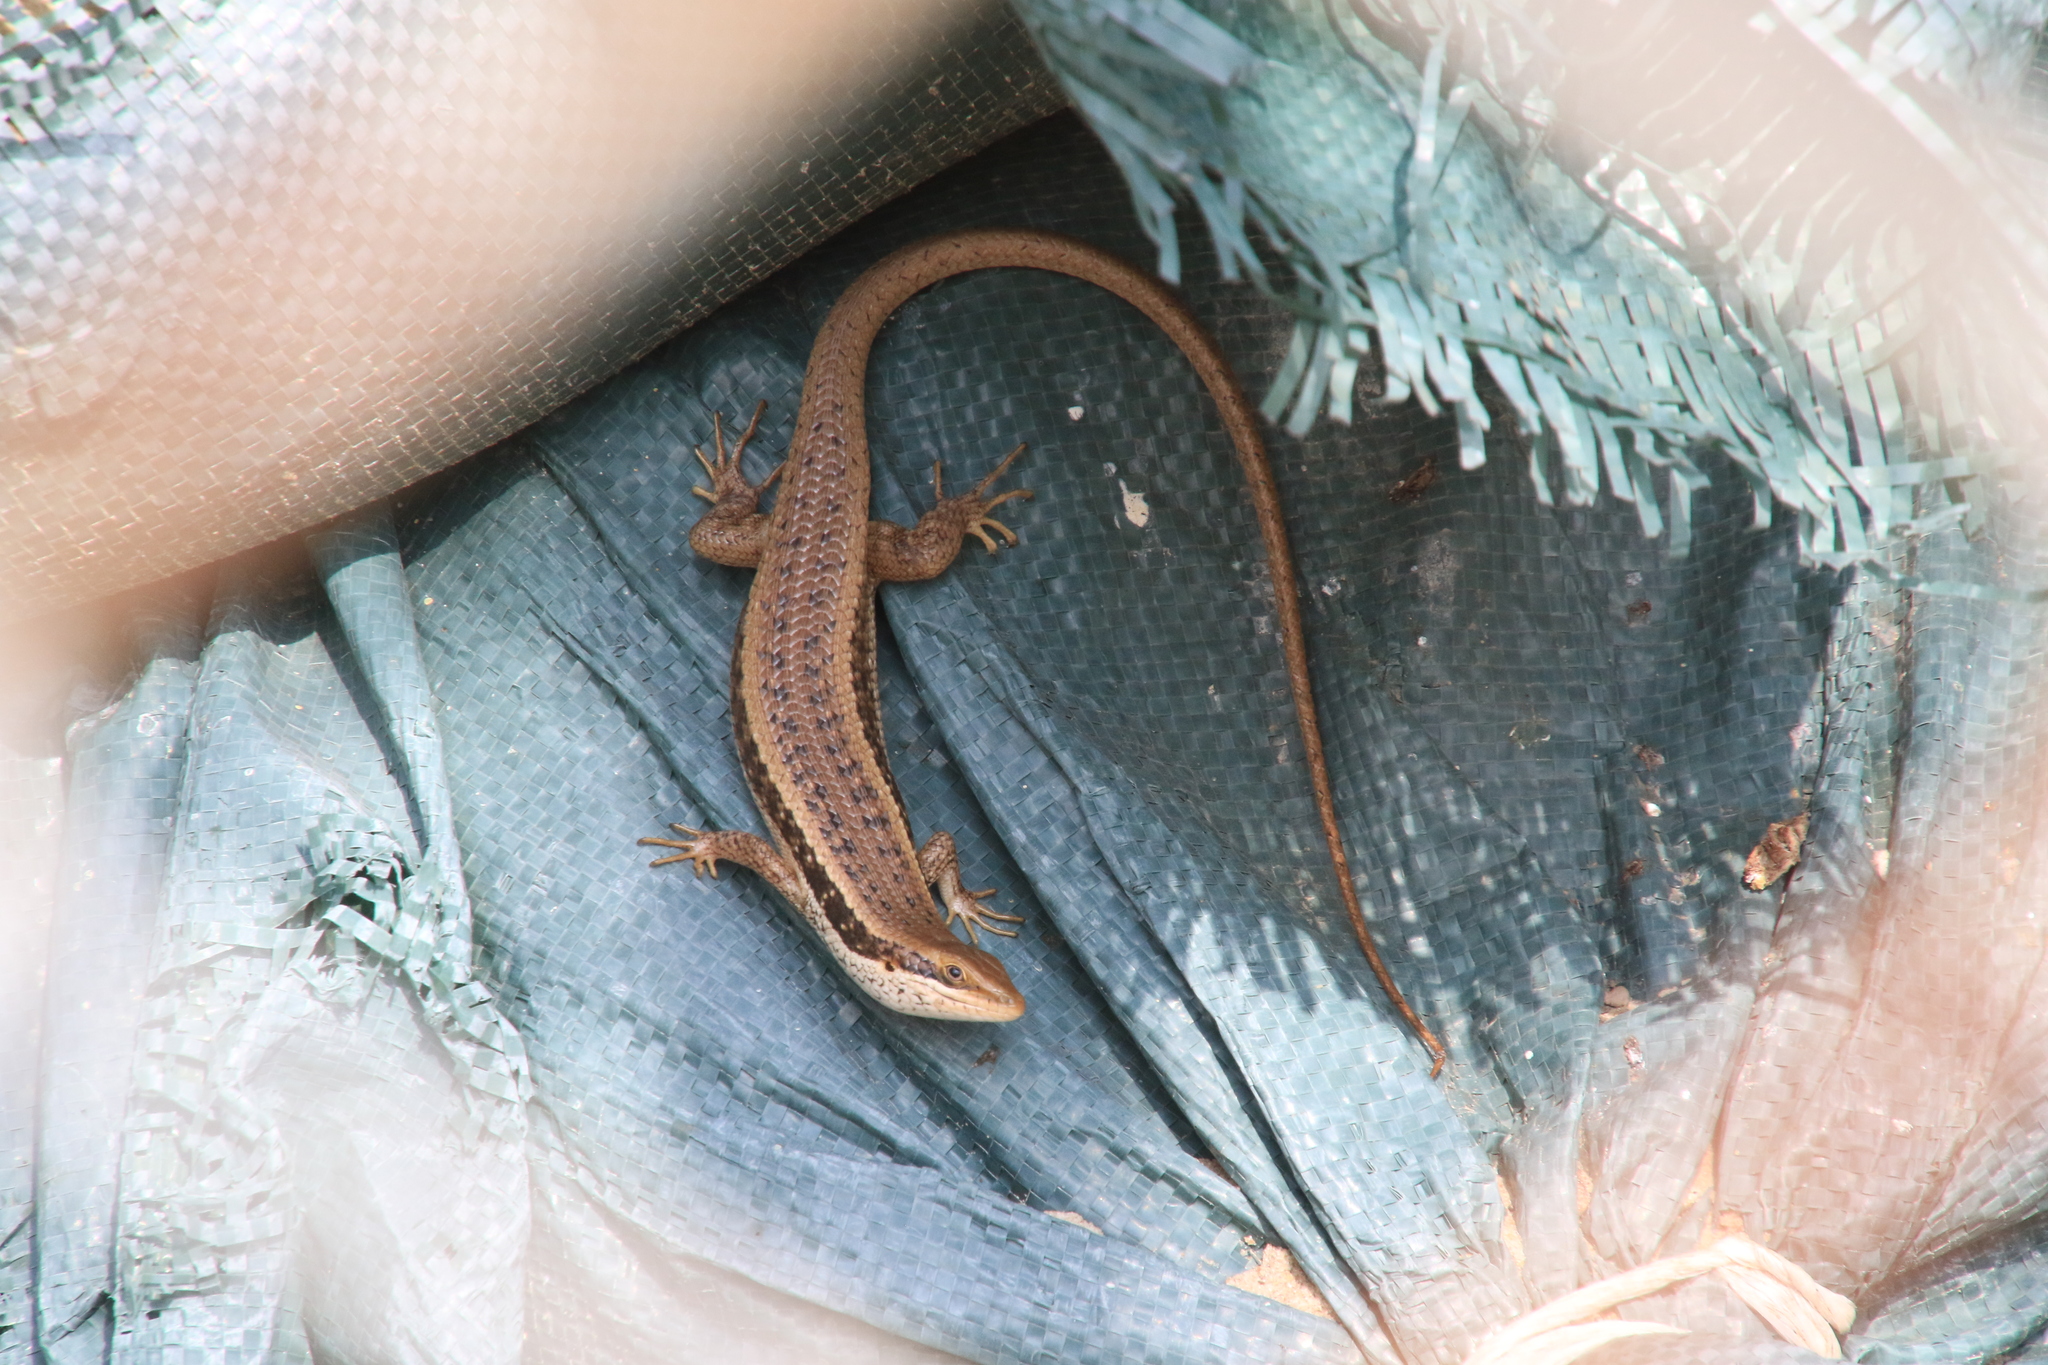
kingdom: Animalia
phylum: Chordata
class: Squamata
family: Scincidae
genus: Trachylepis
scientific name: Trachylepis planifrons
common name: Tree skink
